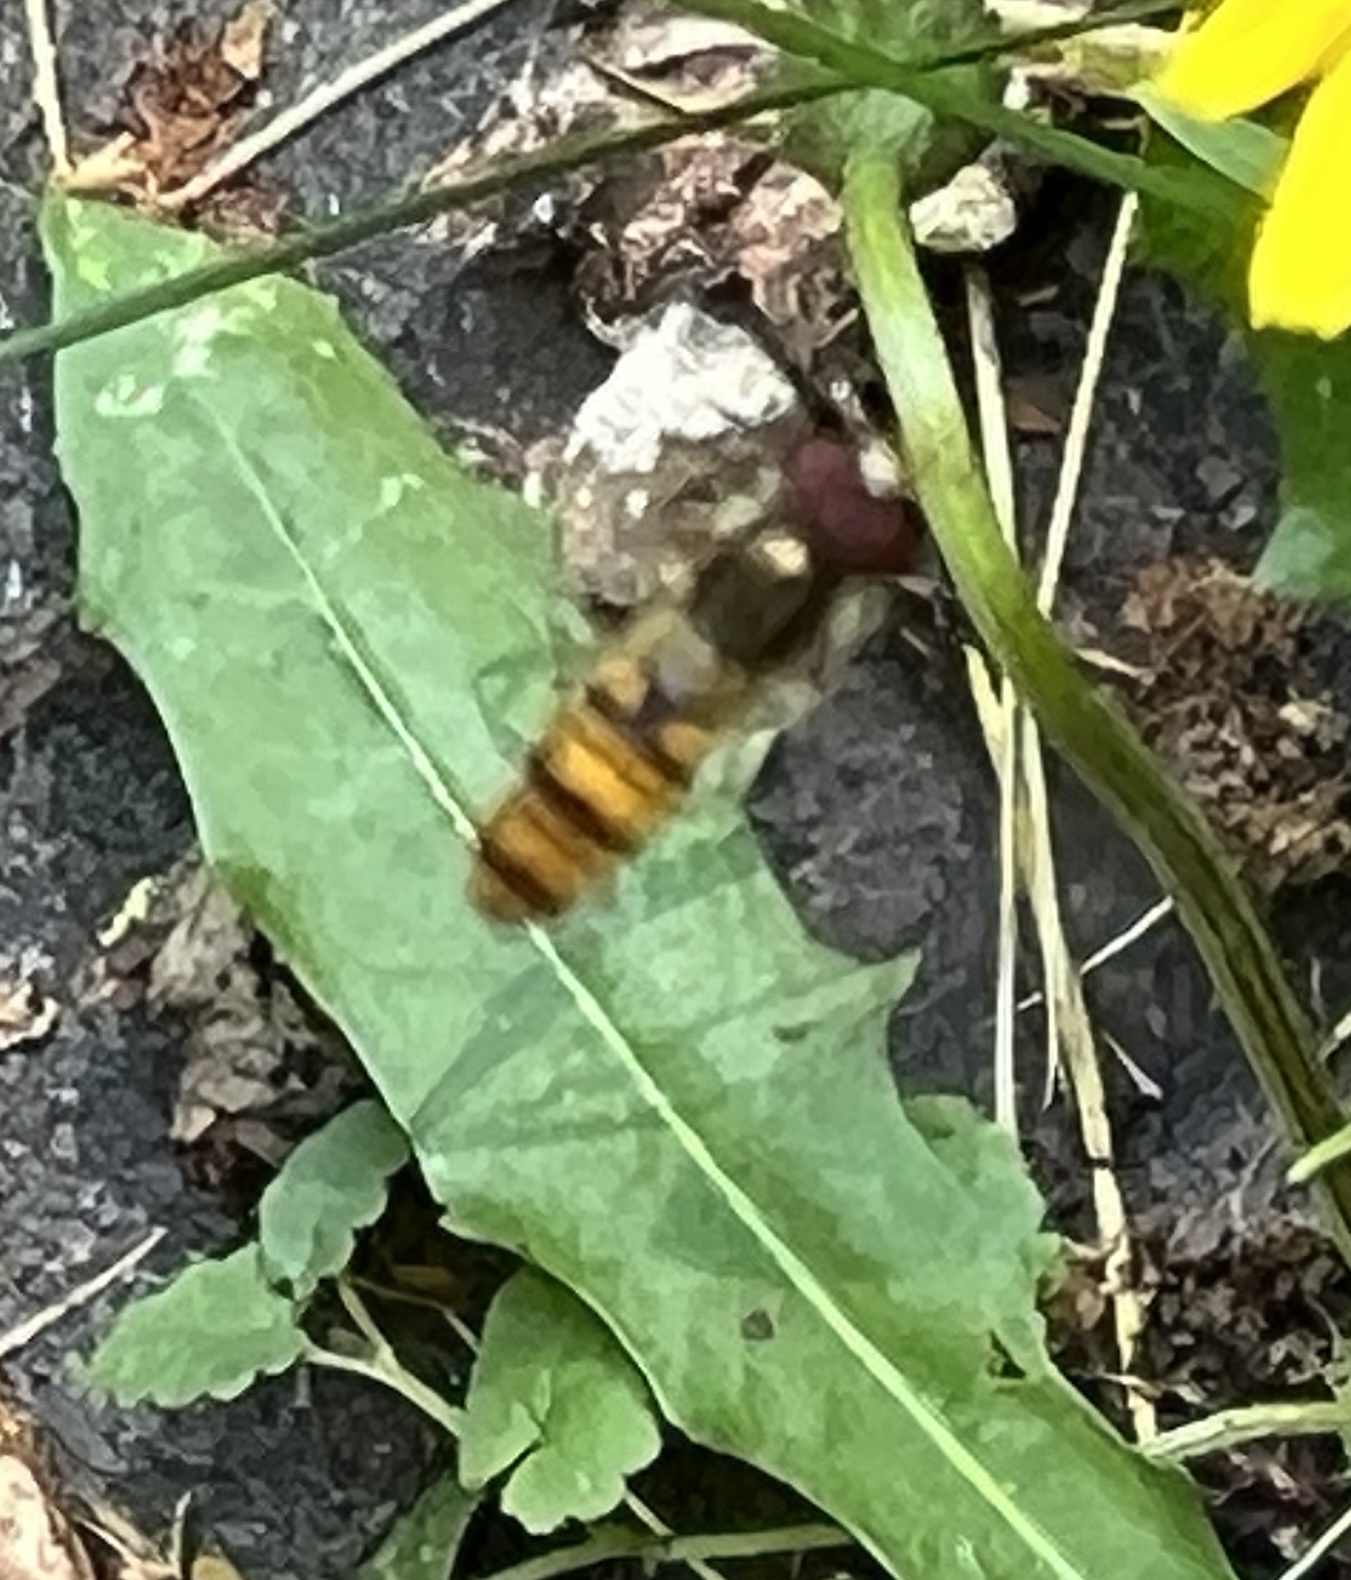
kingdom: Animalia
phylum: Arthropoda
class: Insecta
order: Diptera
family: Syrphidae
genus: Episyrphus
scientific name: Episyrphus balteatus
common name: Marmalade hoverfly
